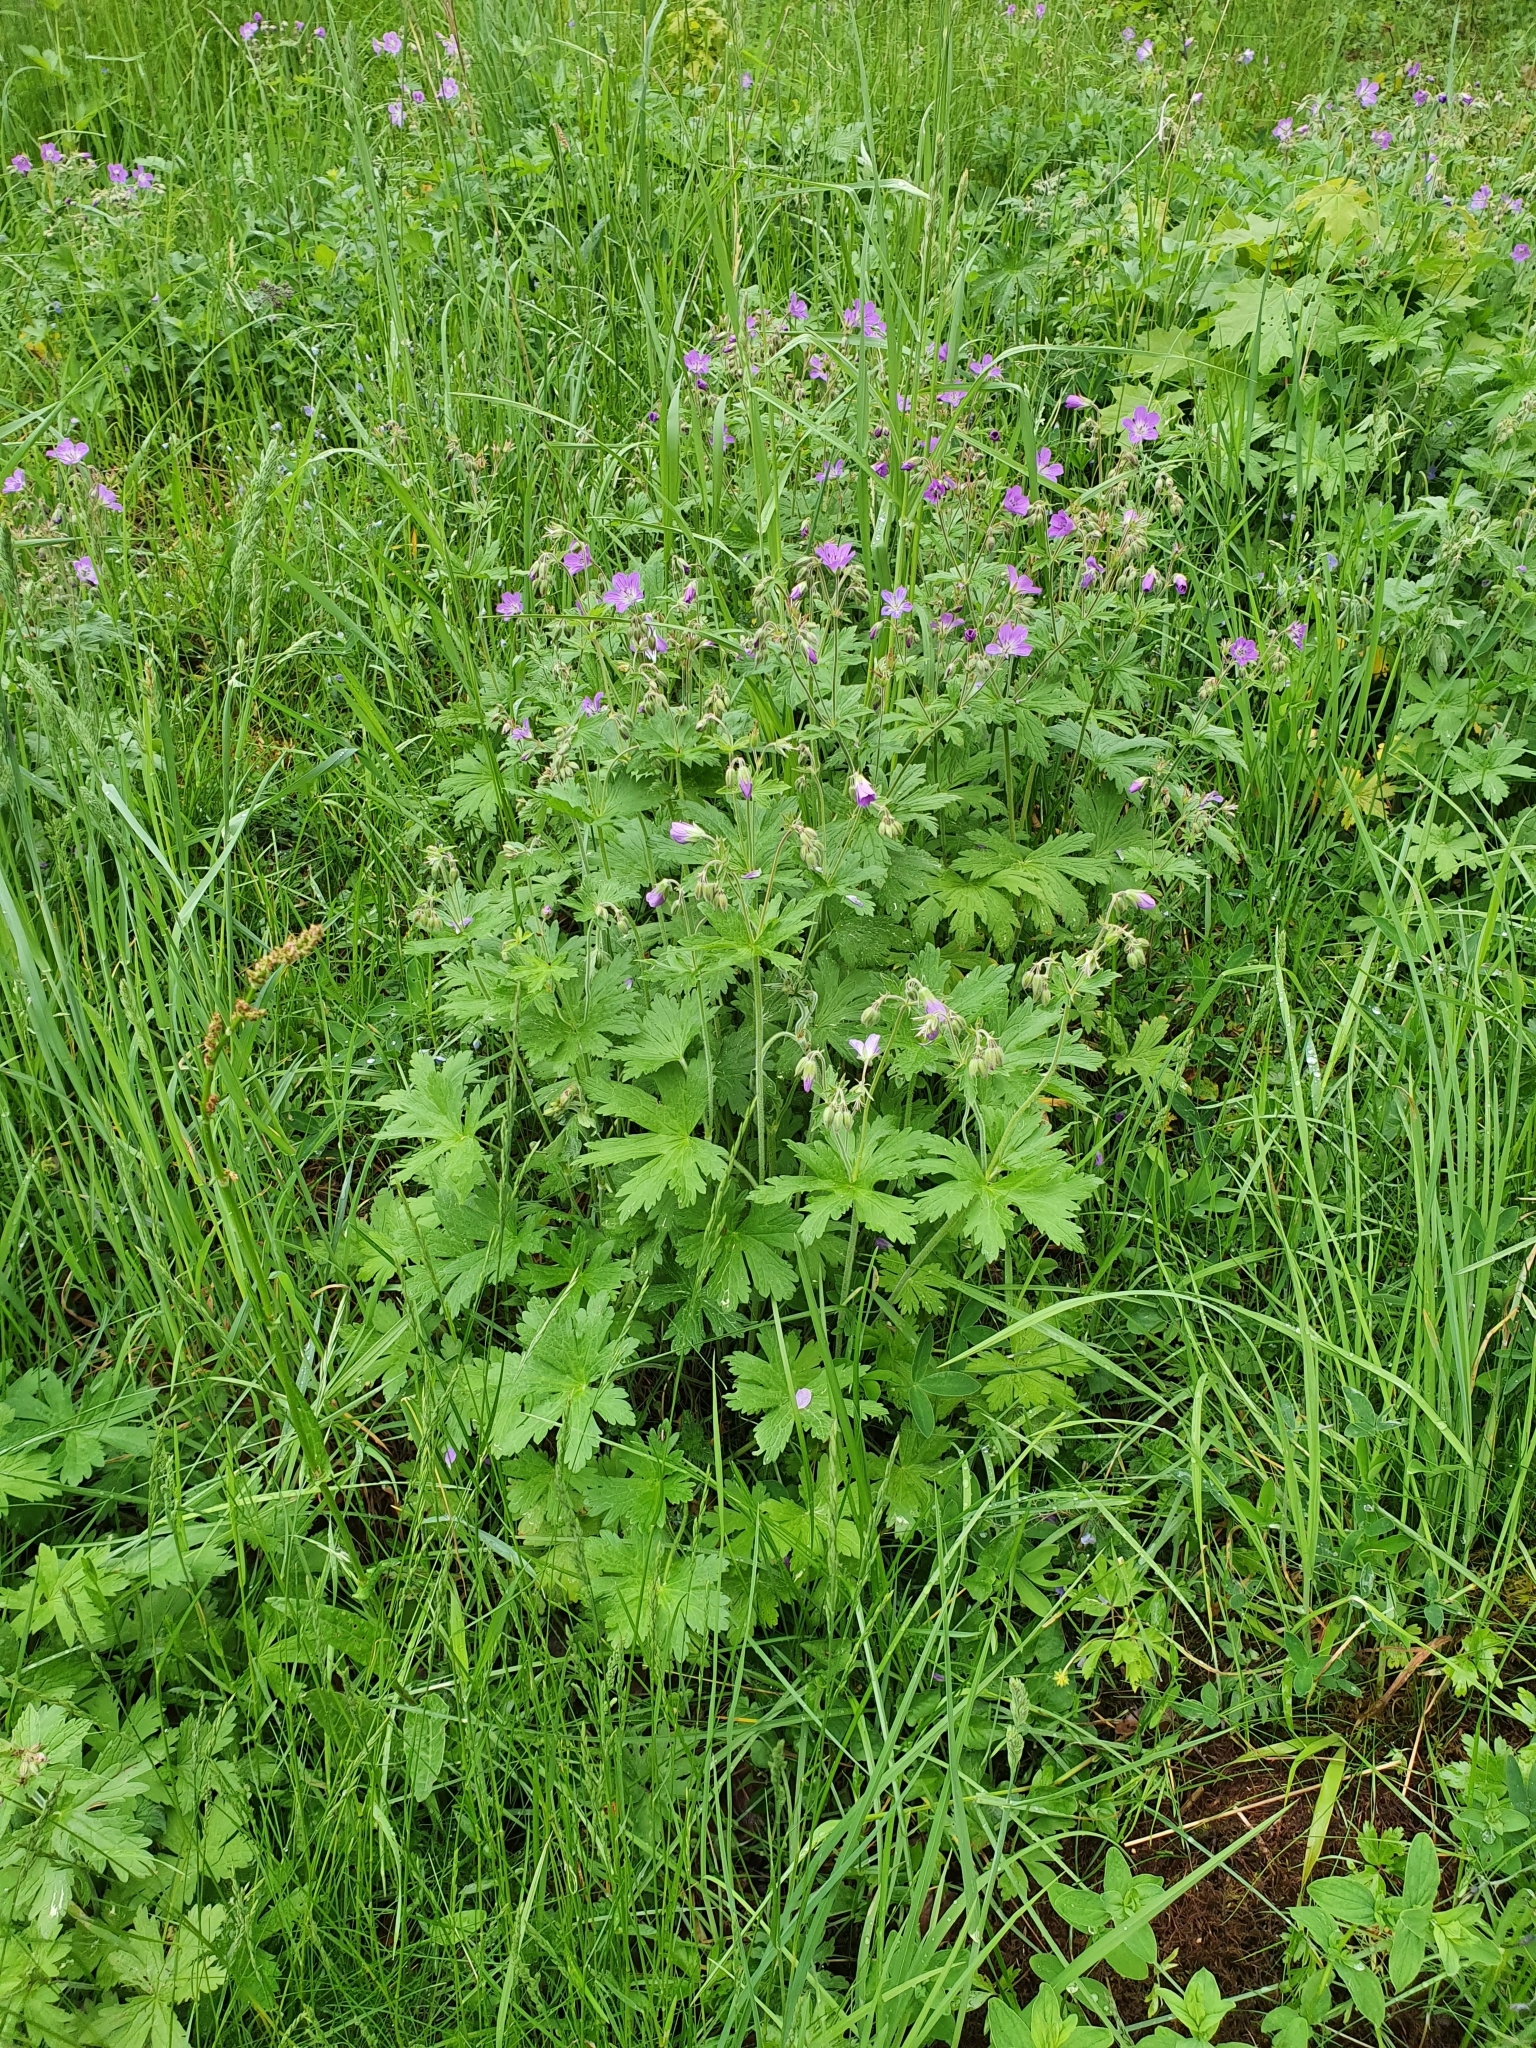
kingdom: Plantae
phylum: Tracheophyta
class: Magnoliopsida
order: Geraniales
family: Geraniaceae
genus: Geranium
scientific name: Geranium sylvaticum
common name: Wood crane's-bill
